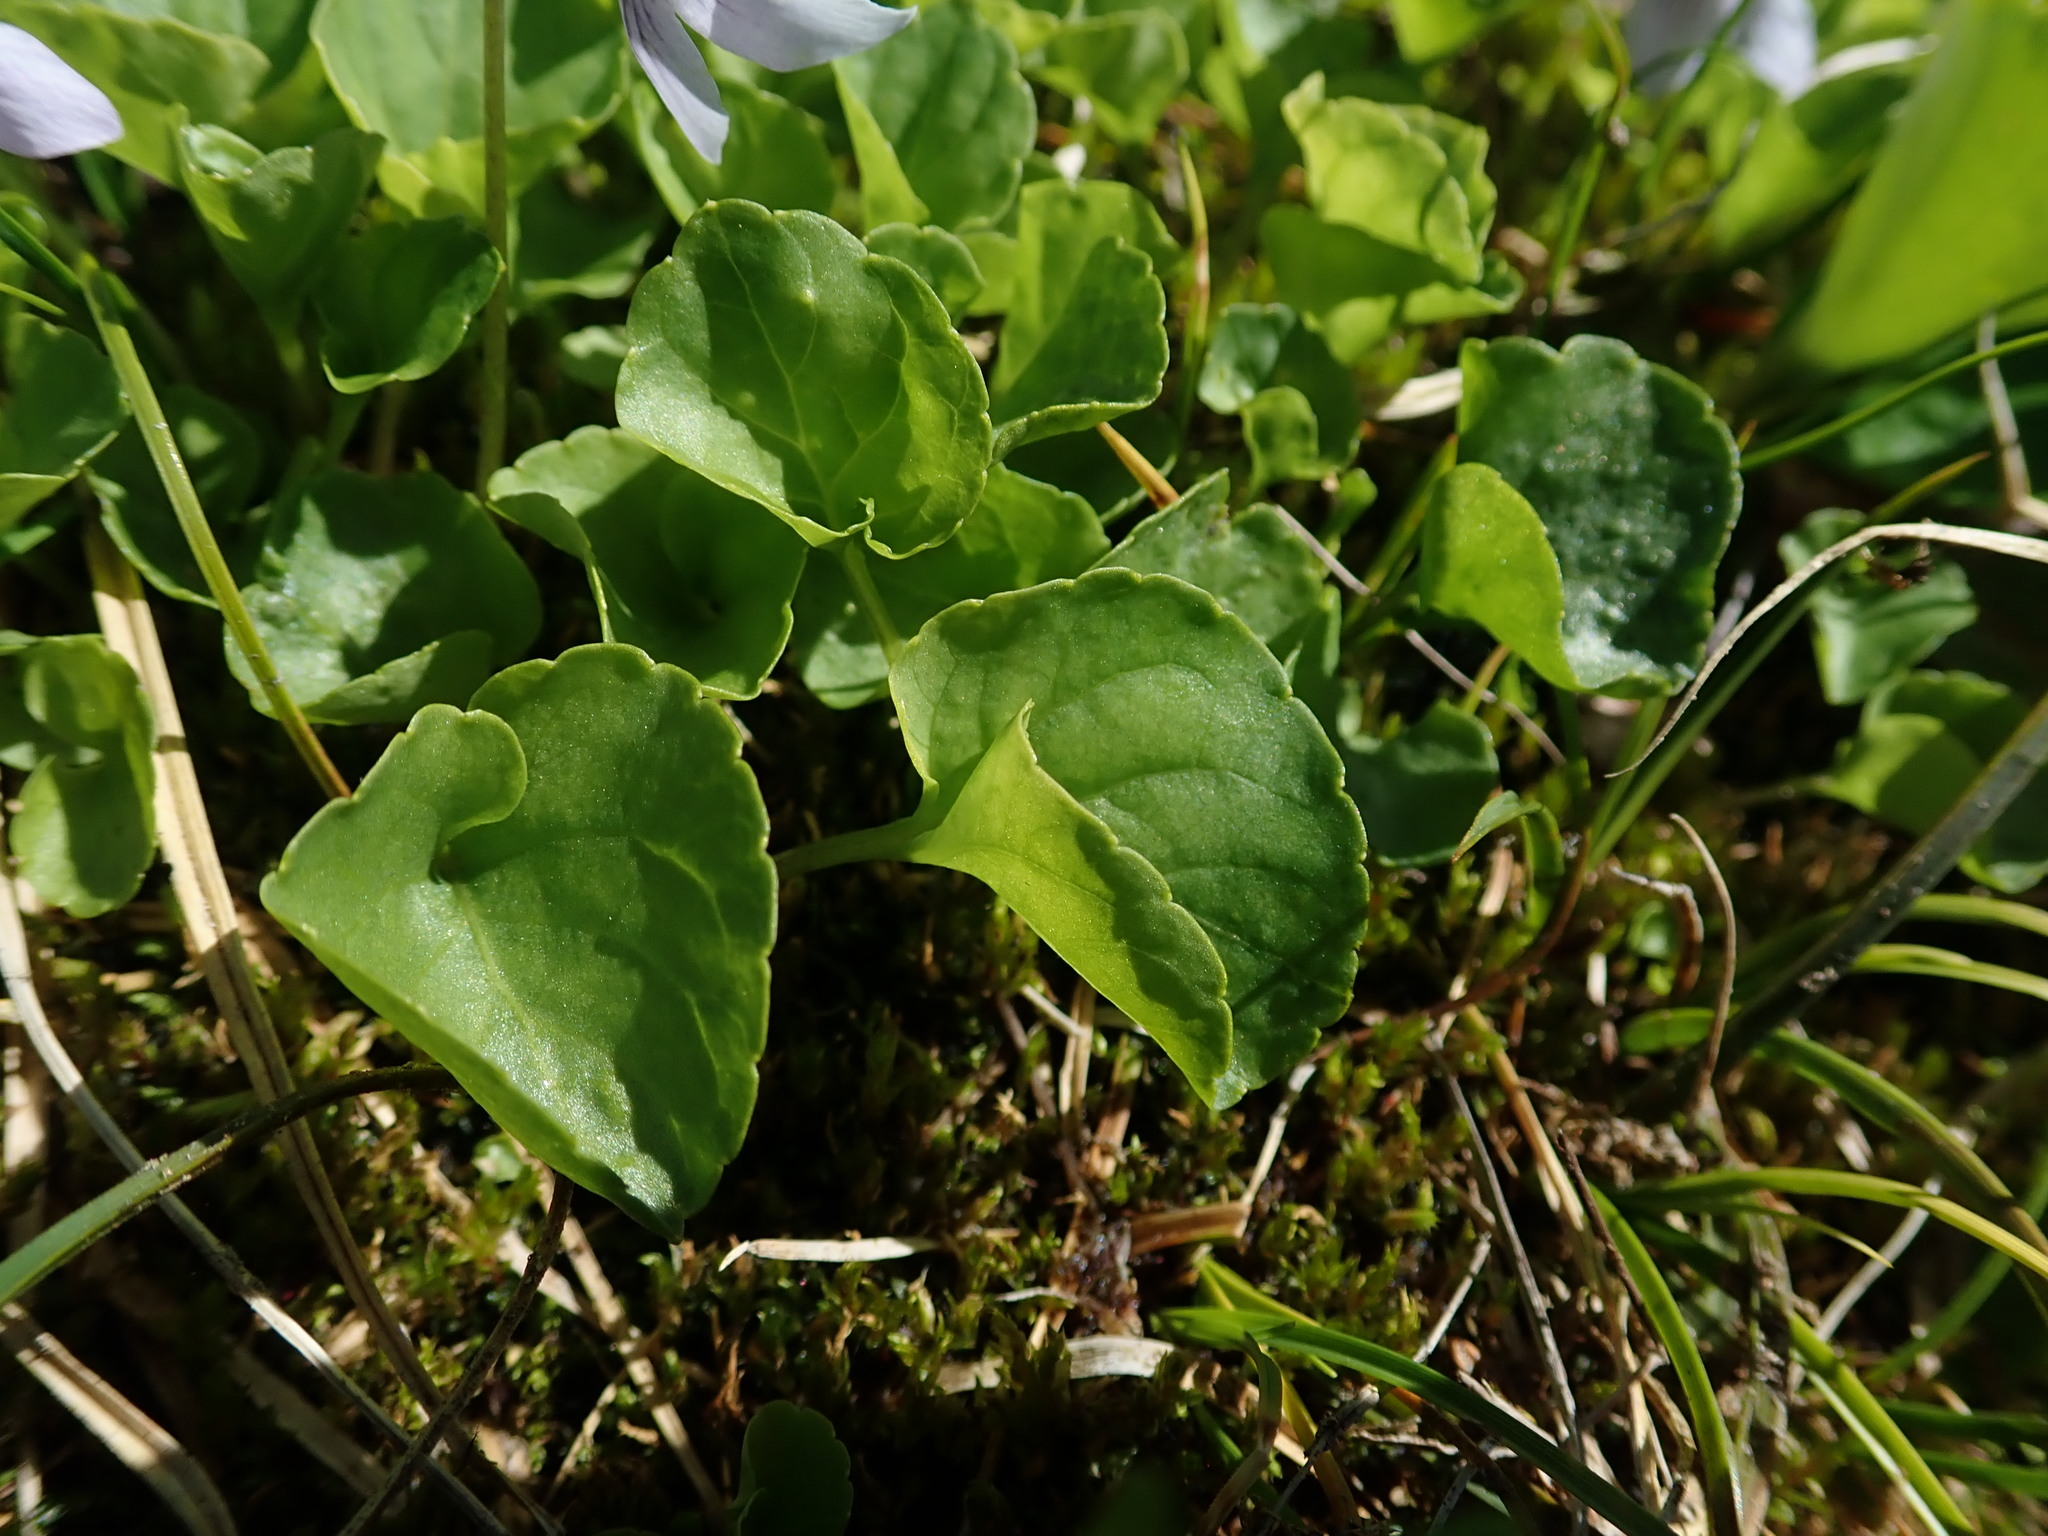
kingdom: Plantae
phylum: Tracheophyta
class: Magnoliopsida
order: Malpighiales
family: Violaceae
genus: Viola
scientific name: Viola palustris
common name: Marsh violet
